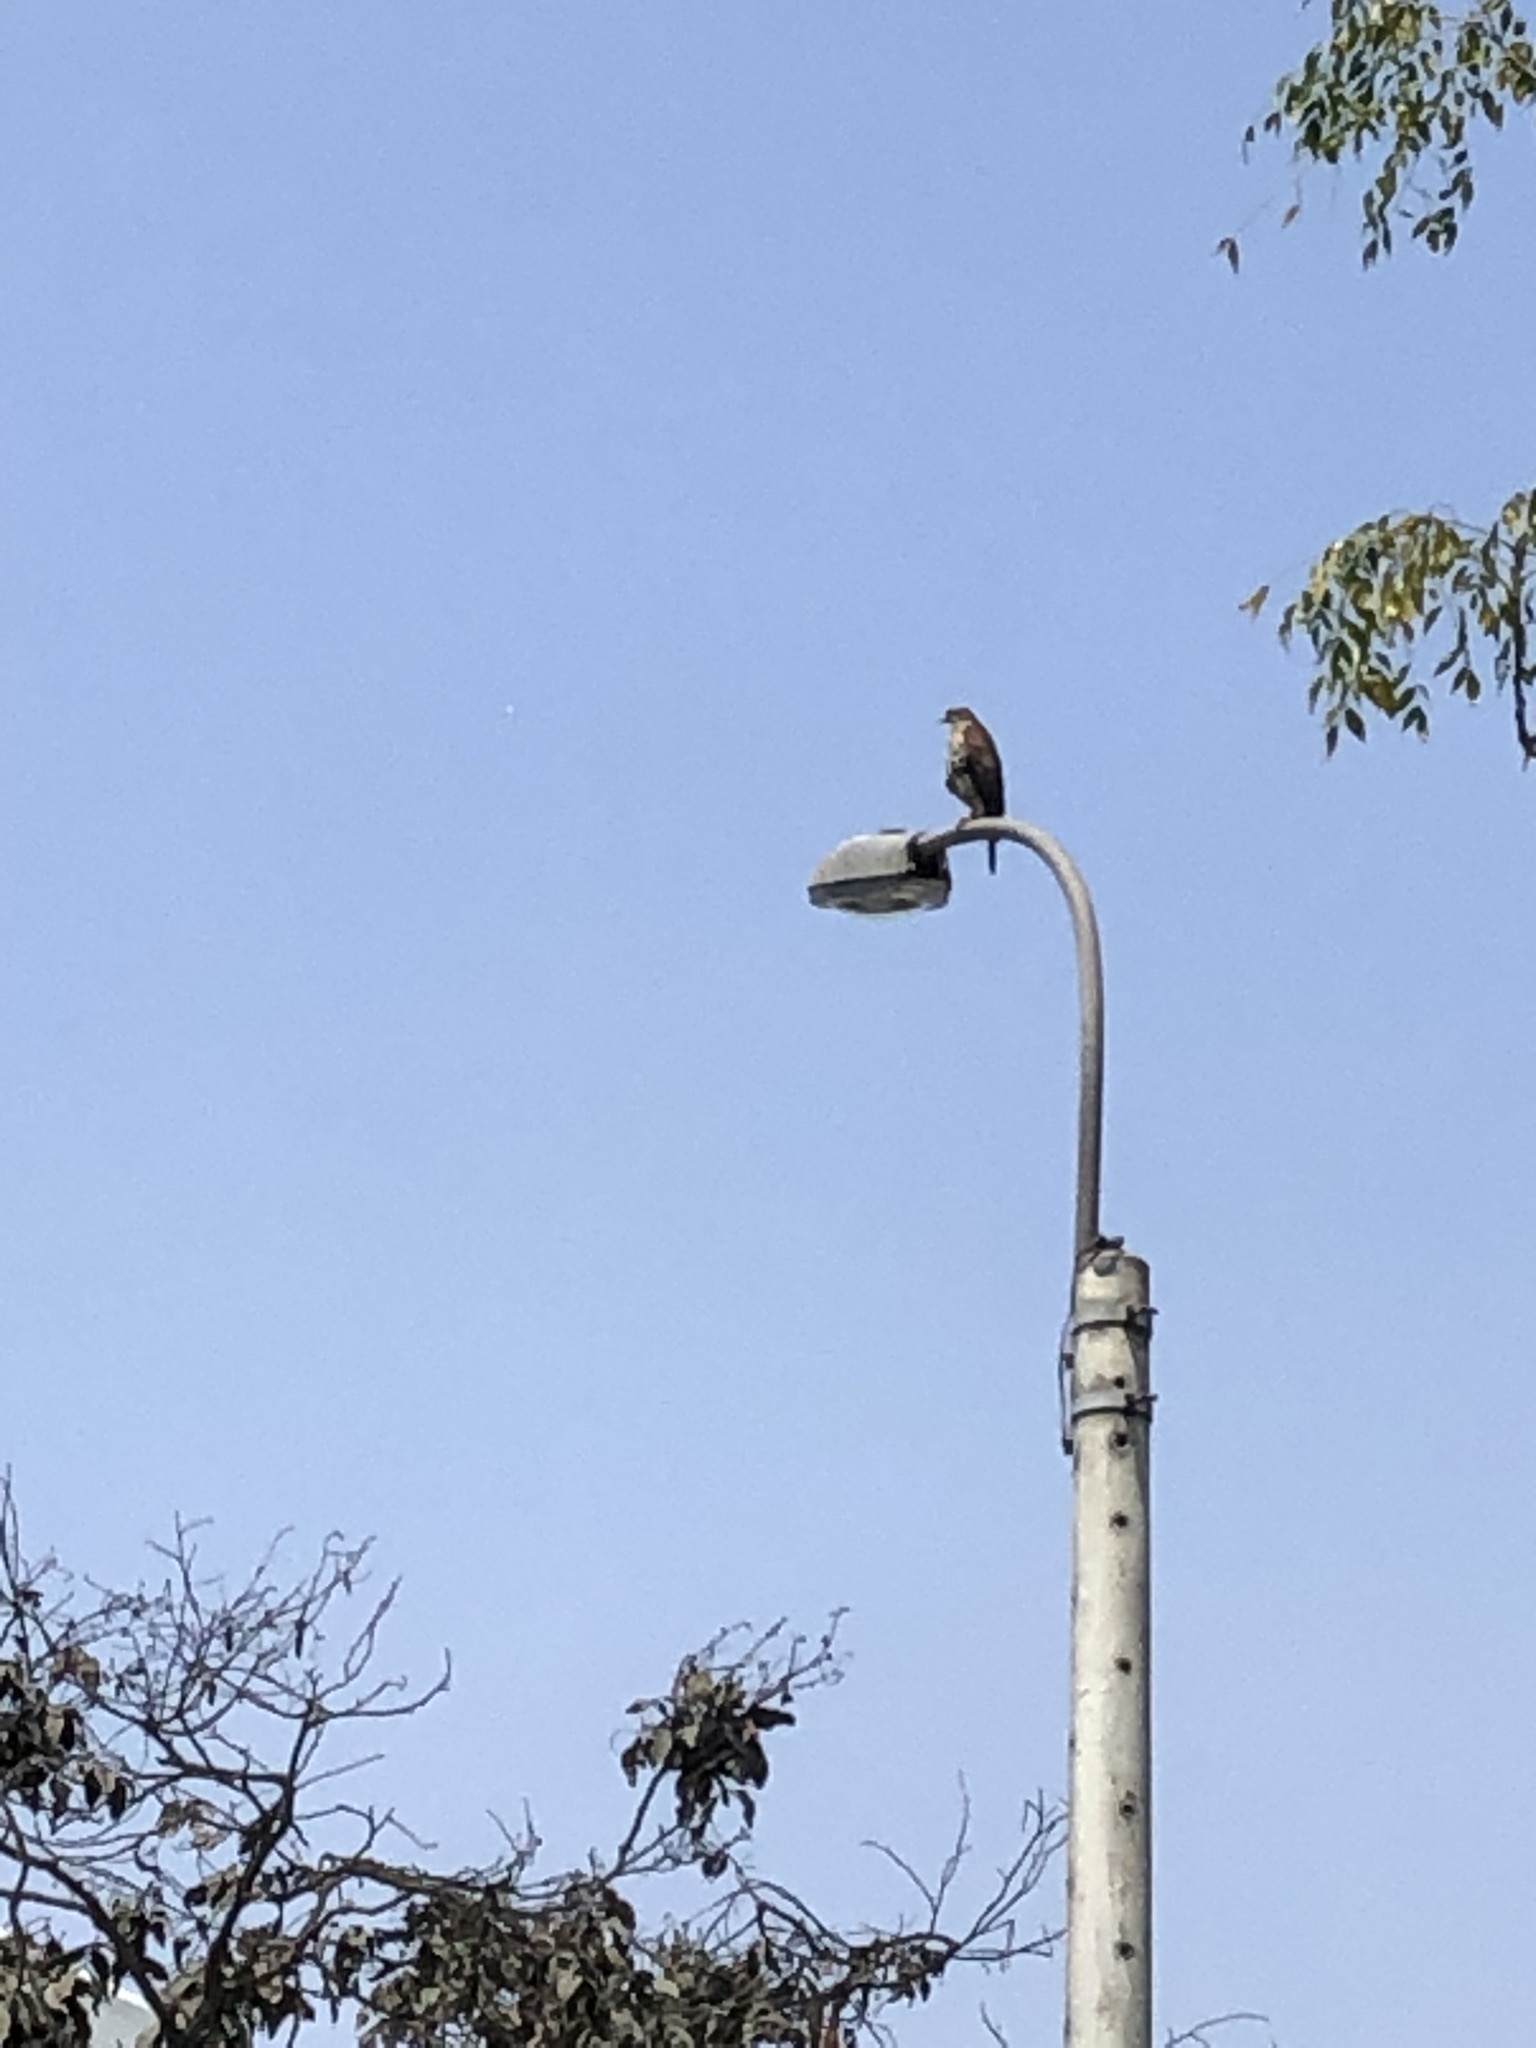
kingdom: Animalia
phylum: Chordata
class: Aves
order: Accipitriformes
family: Accipitridae
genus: Parabuteo
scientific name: Parabuteo unicinctus
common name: Harris's hawk
